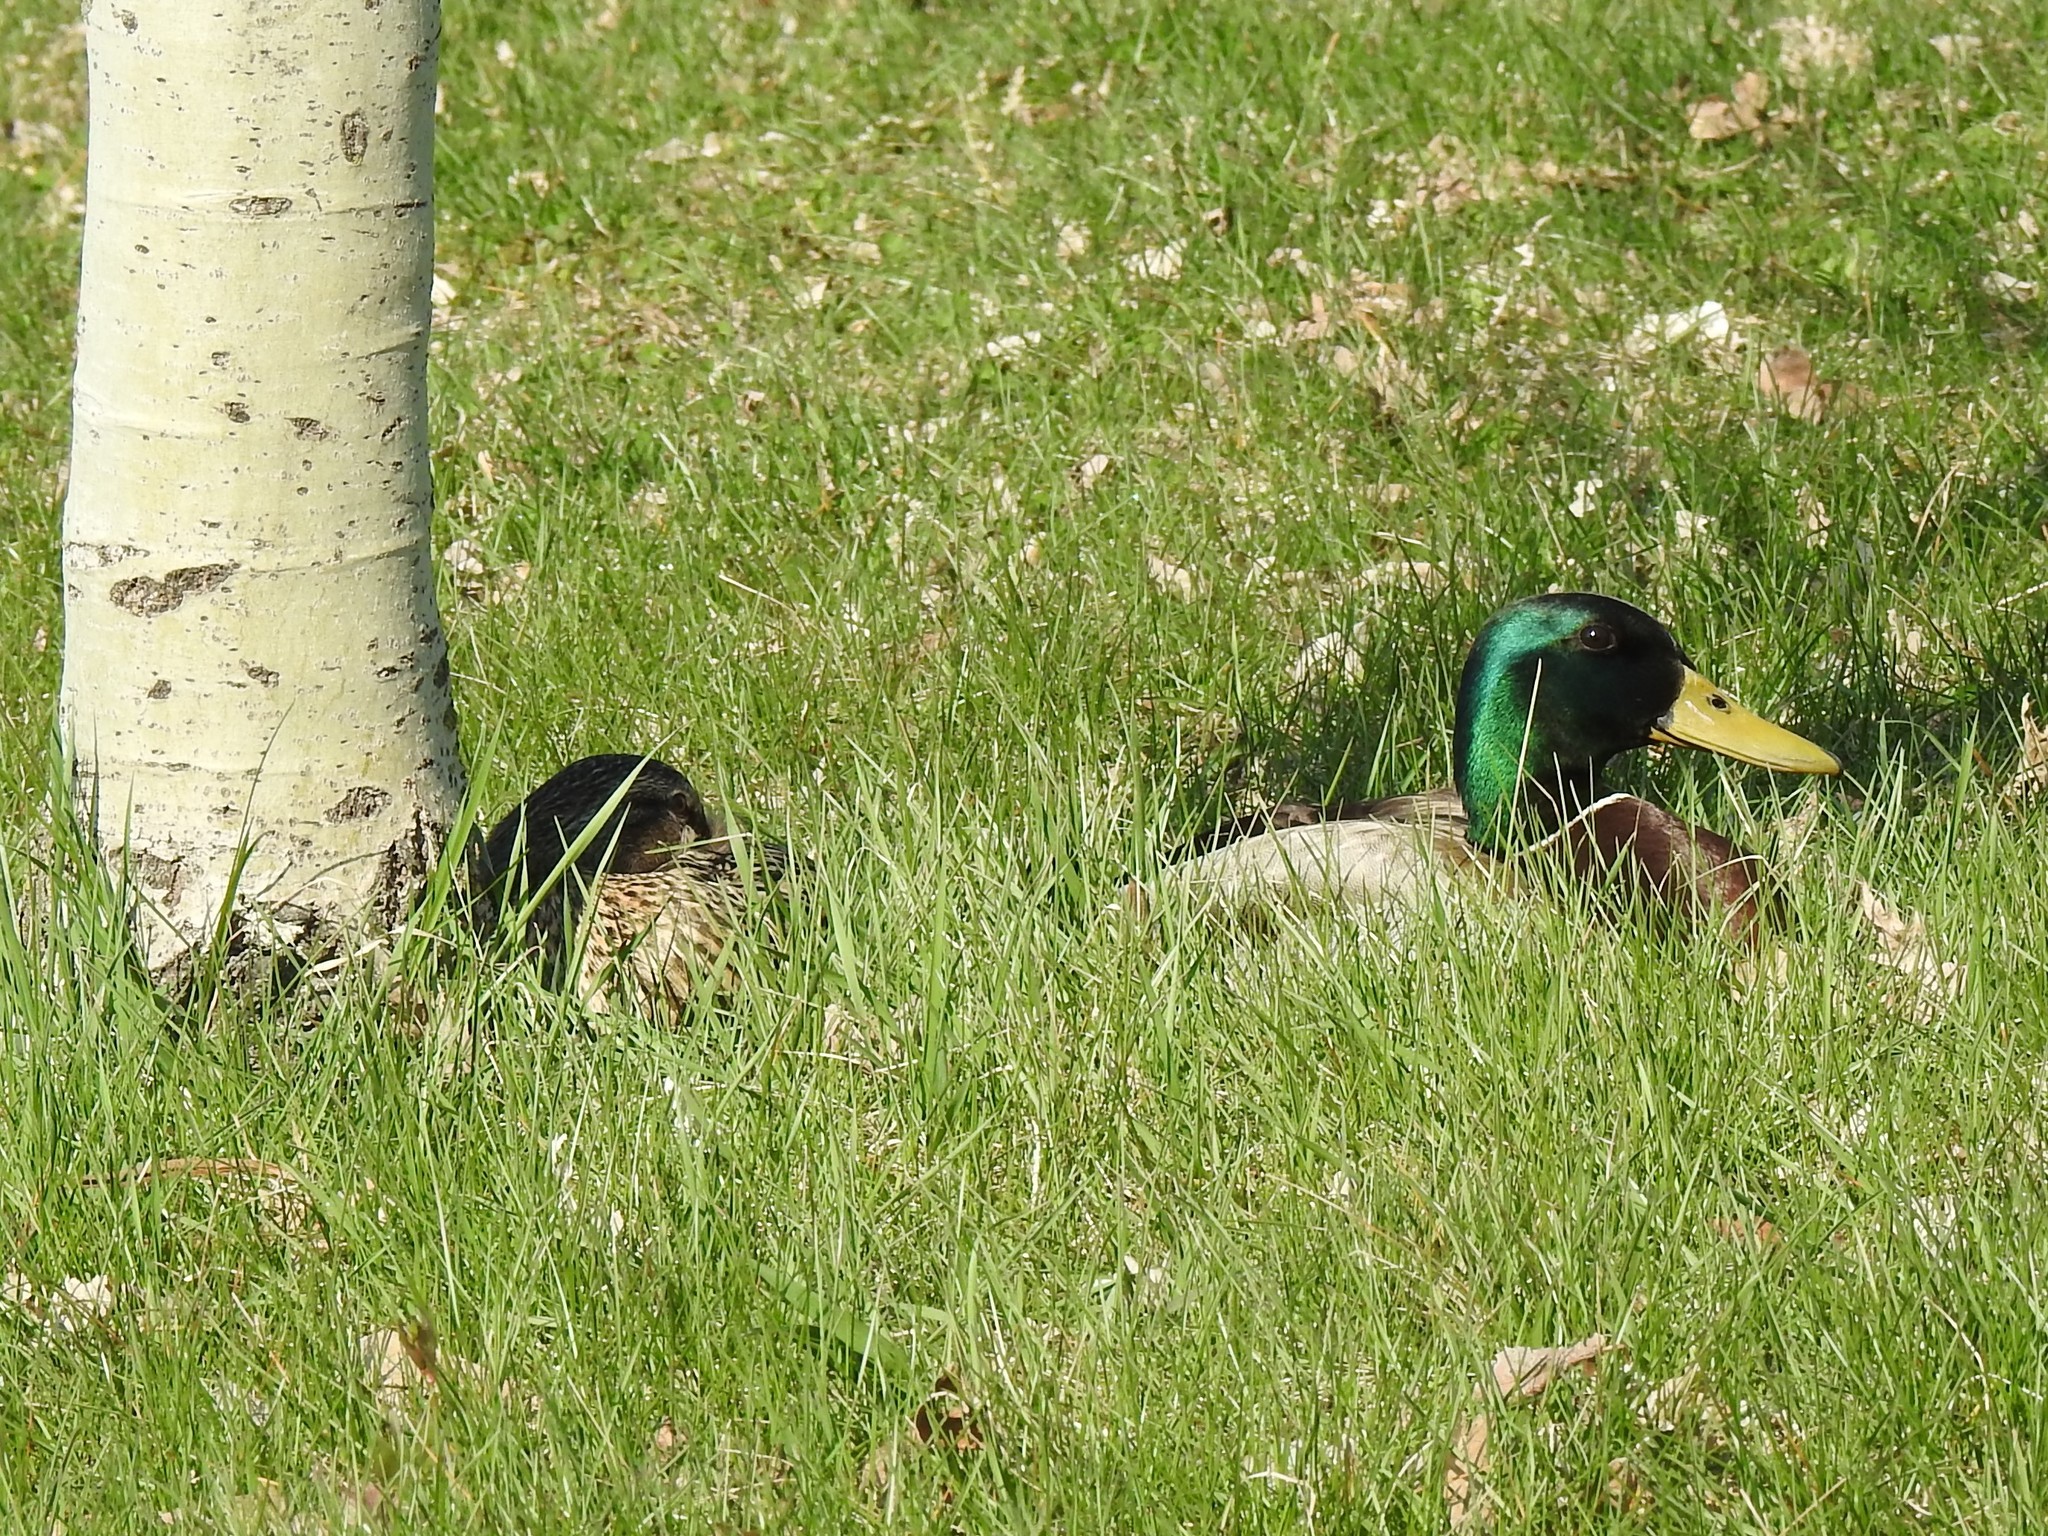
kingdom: Animalia
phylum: Chordata
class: Aves
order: Anseriformes
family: Anatidae
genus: Anas
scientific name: Anas platyrhynchos
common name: Mallard
